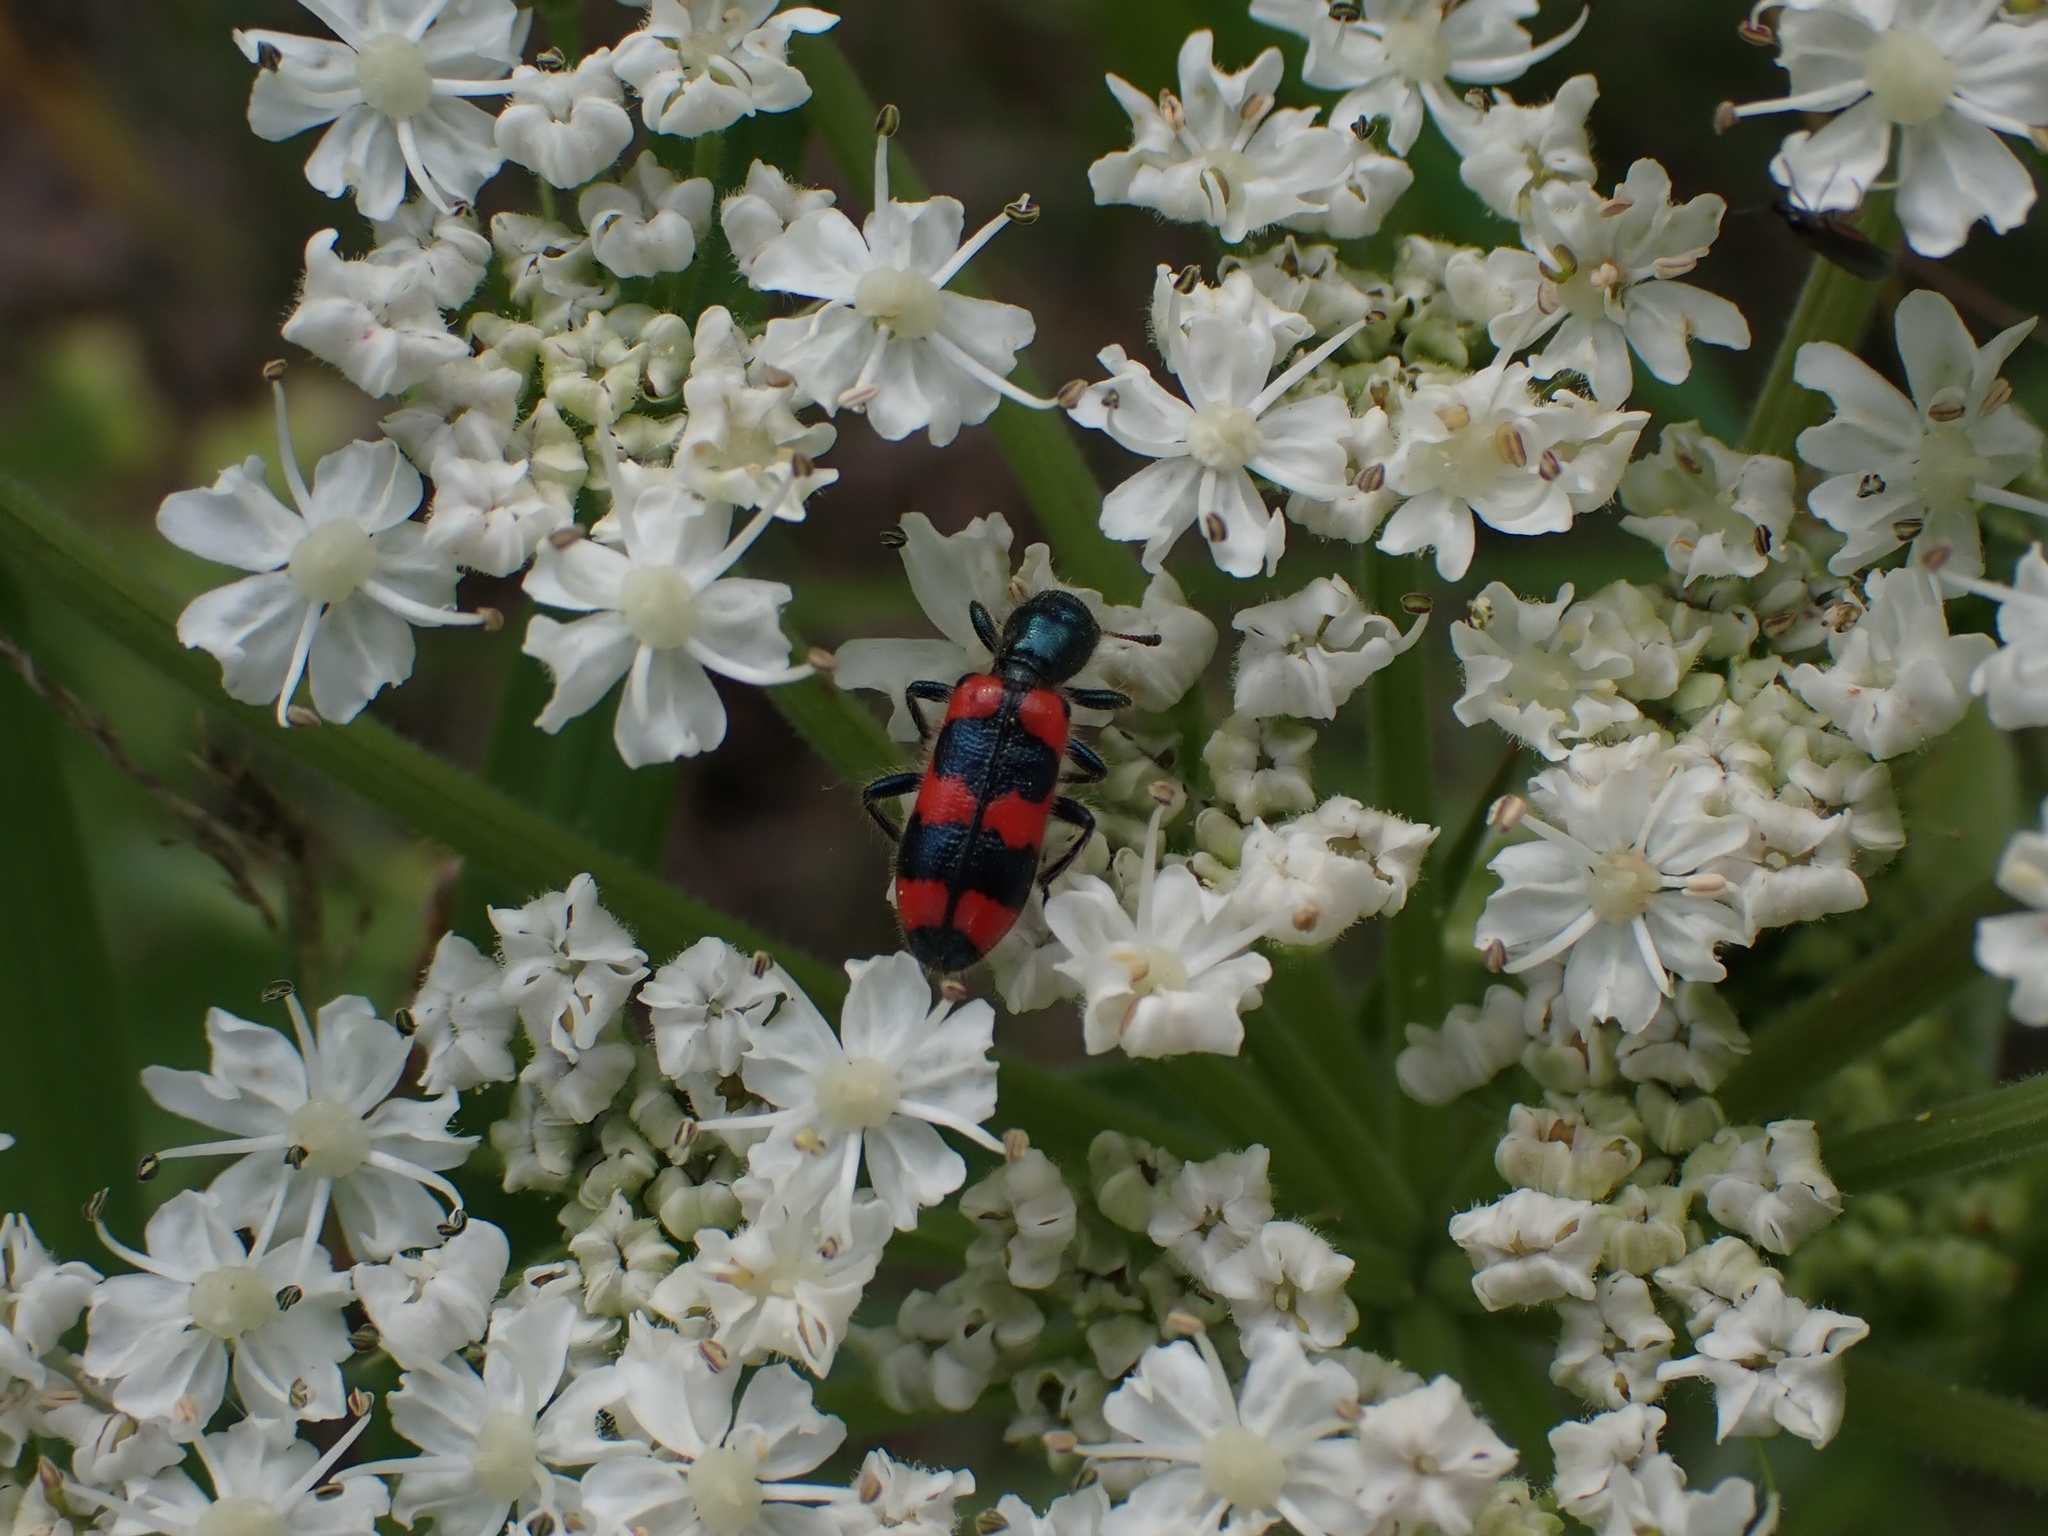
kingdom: Animalia
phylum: Arthropoda
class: Insecta
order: Coleoptera
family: Cleridae
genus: Trichodes
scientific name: Trichodes nutalli
